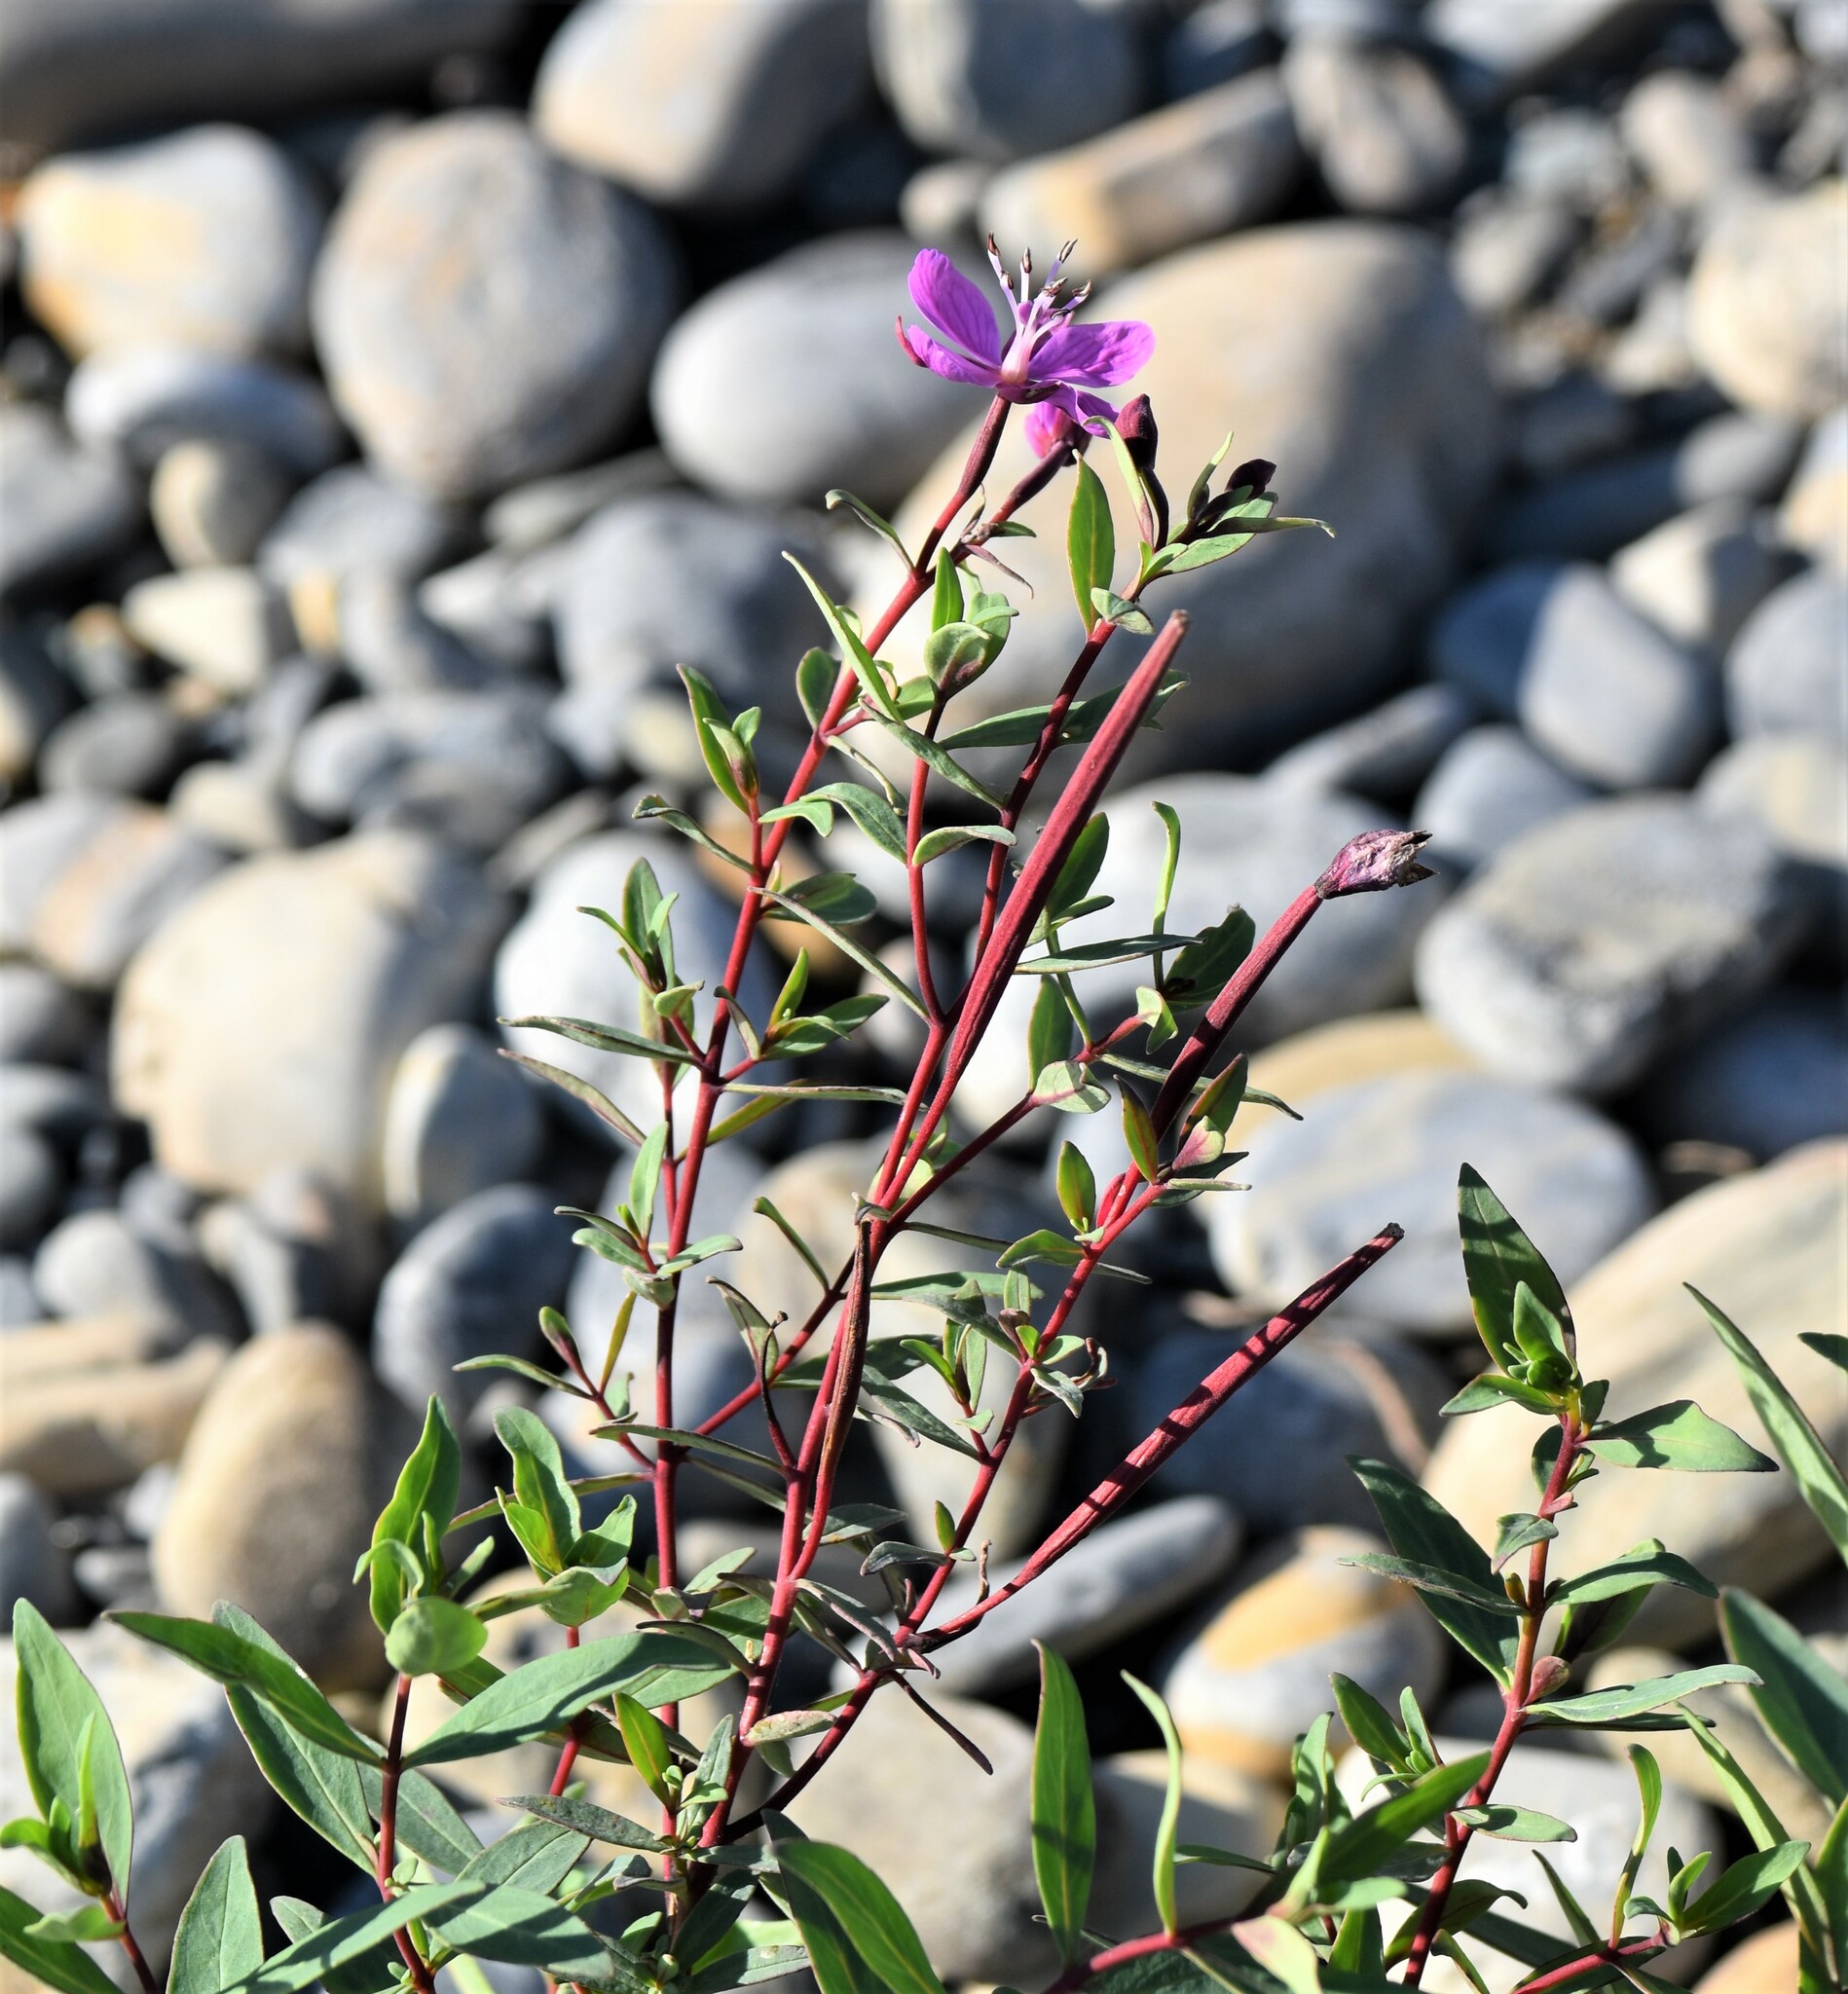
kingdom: Plantae
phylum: Tracheophyta
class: Magnoliopsida
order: Myrtales
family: Onagraceae
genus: Chamaenerion
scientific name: Chamaenerion latifolium
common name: Dwarf fireweed
